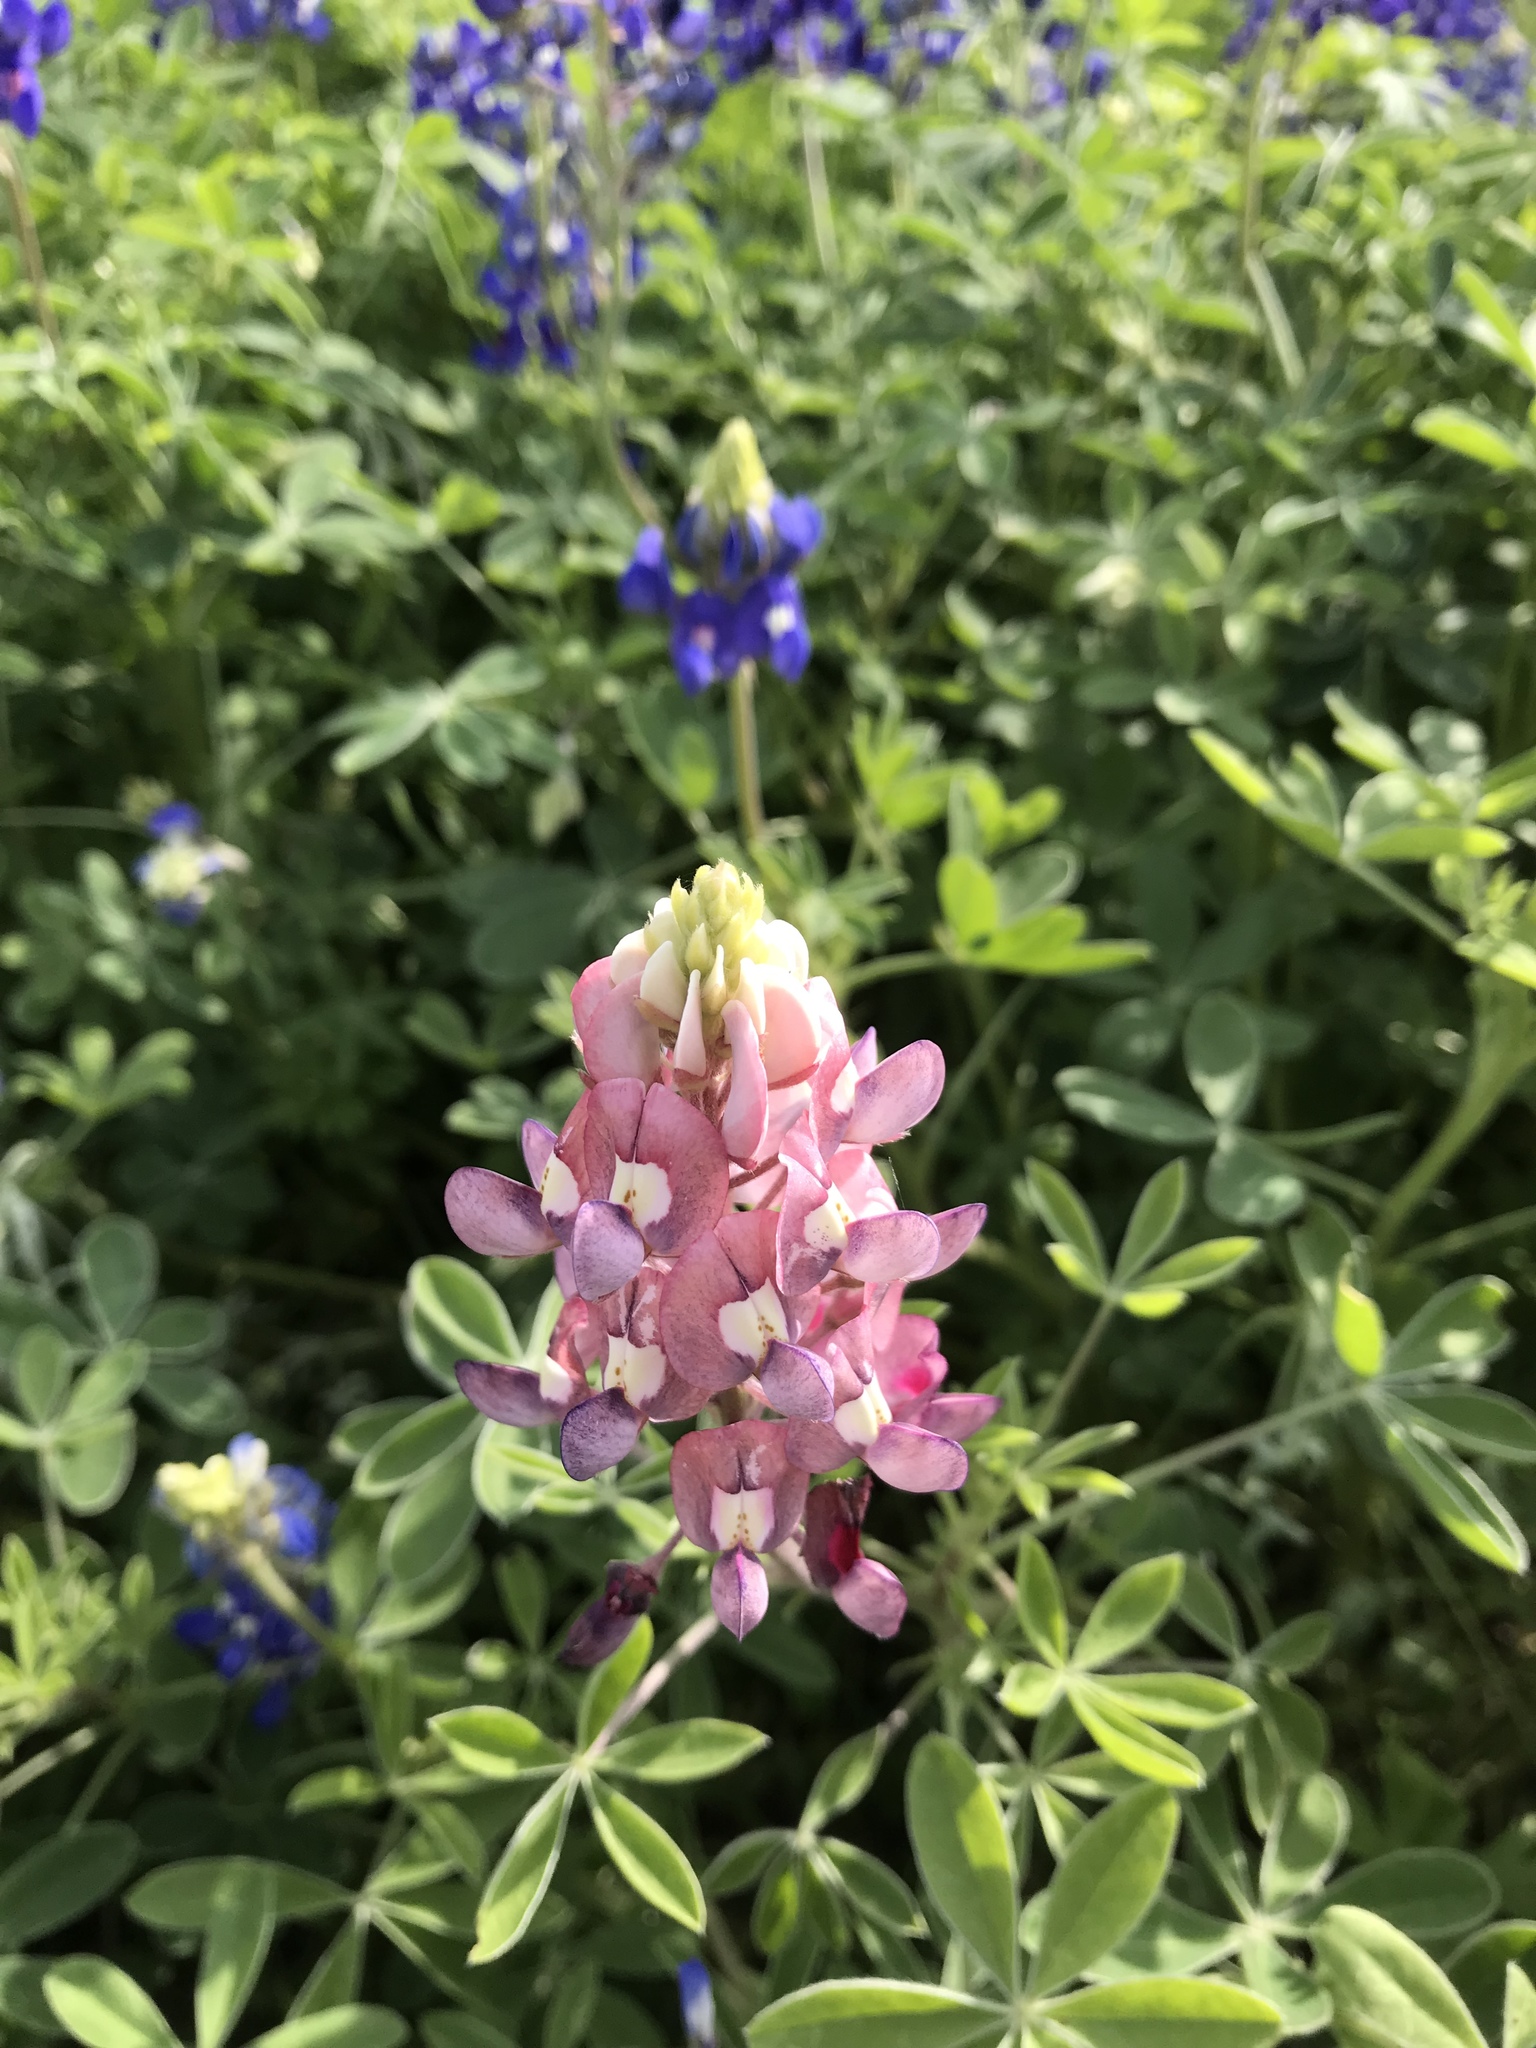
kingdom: Plantae
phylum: Tracheophyta
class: Magnoliopsida
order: Fabales
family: Fabaceae
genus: Lupinus
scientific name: Lupinus texensis
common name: Texas bluebonnet
